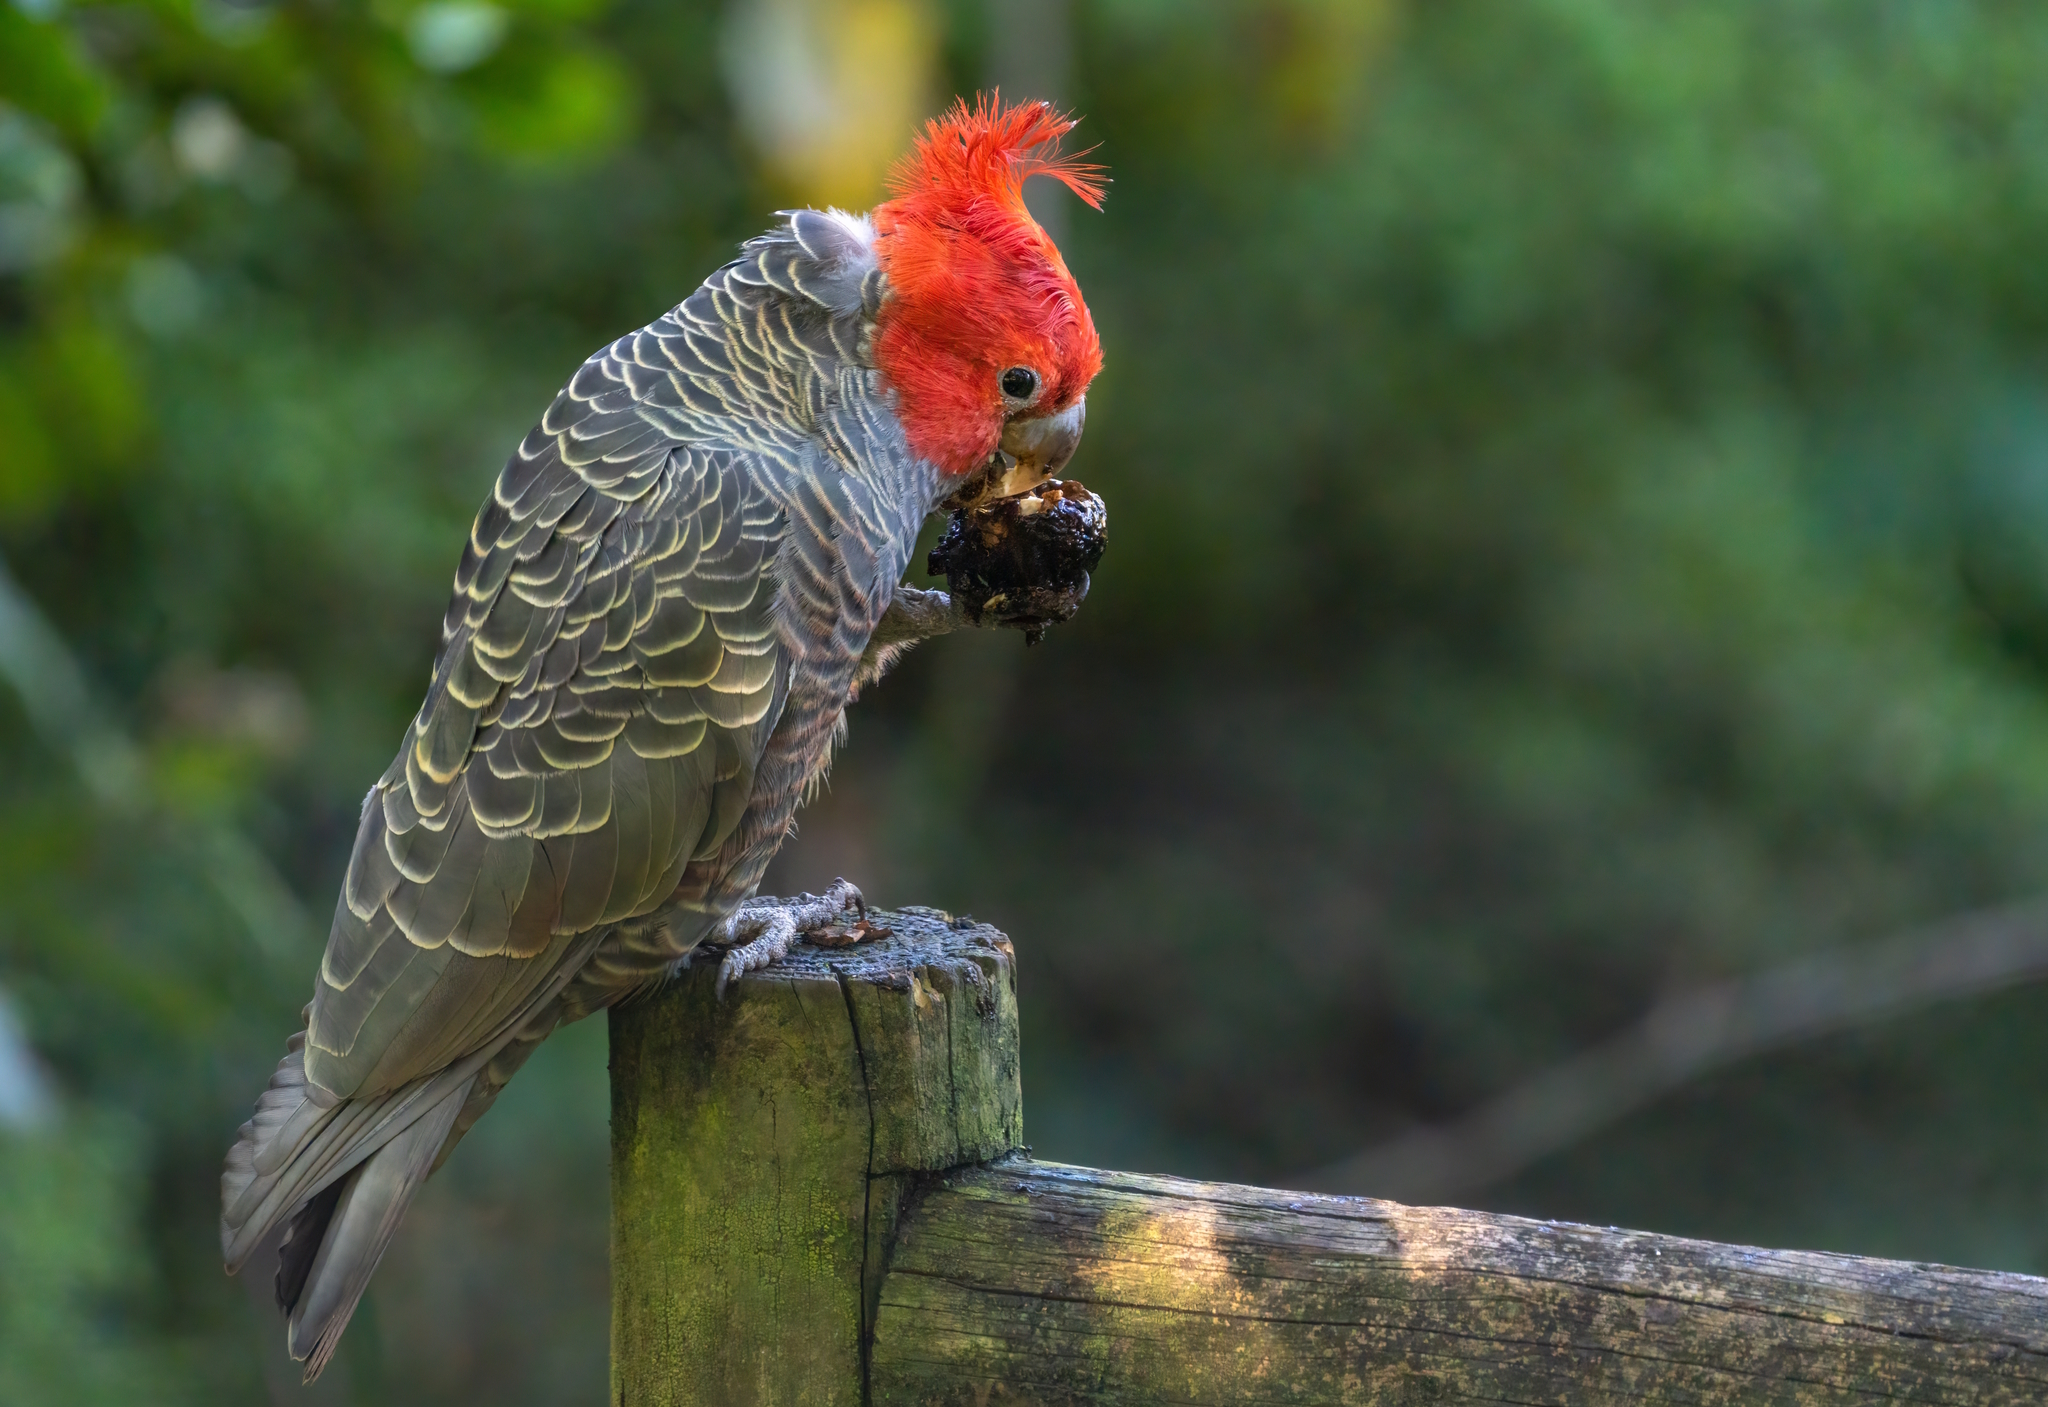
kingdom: Animalia
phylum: Chordata
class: Aves
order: Psittaciformes
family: Psittacidae
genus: Callocephalon
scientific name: Callocephalon fimbriatum
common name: Gang-gang cockatoo
